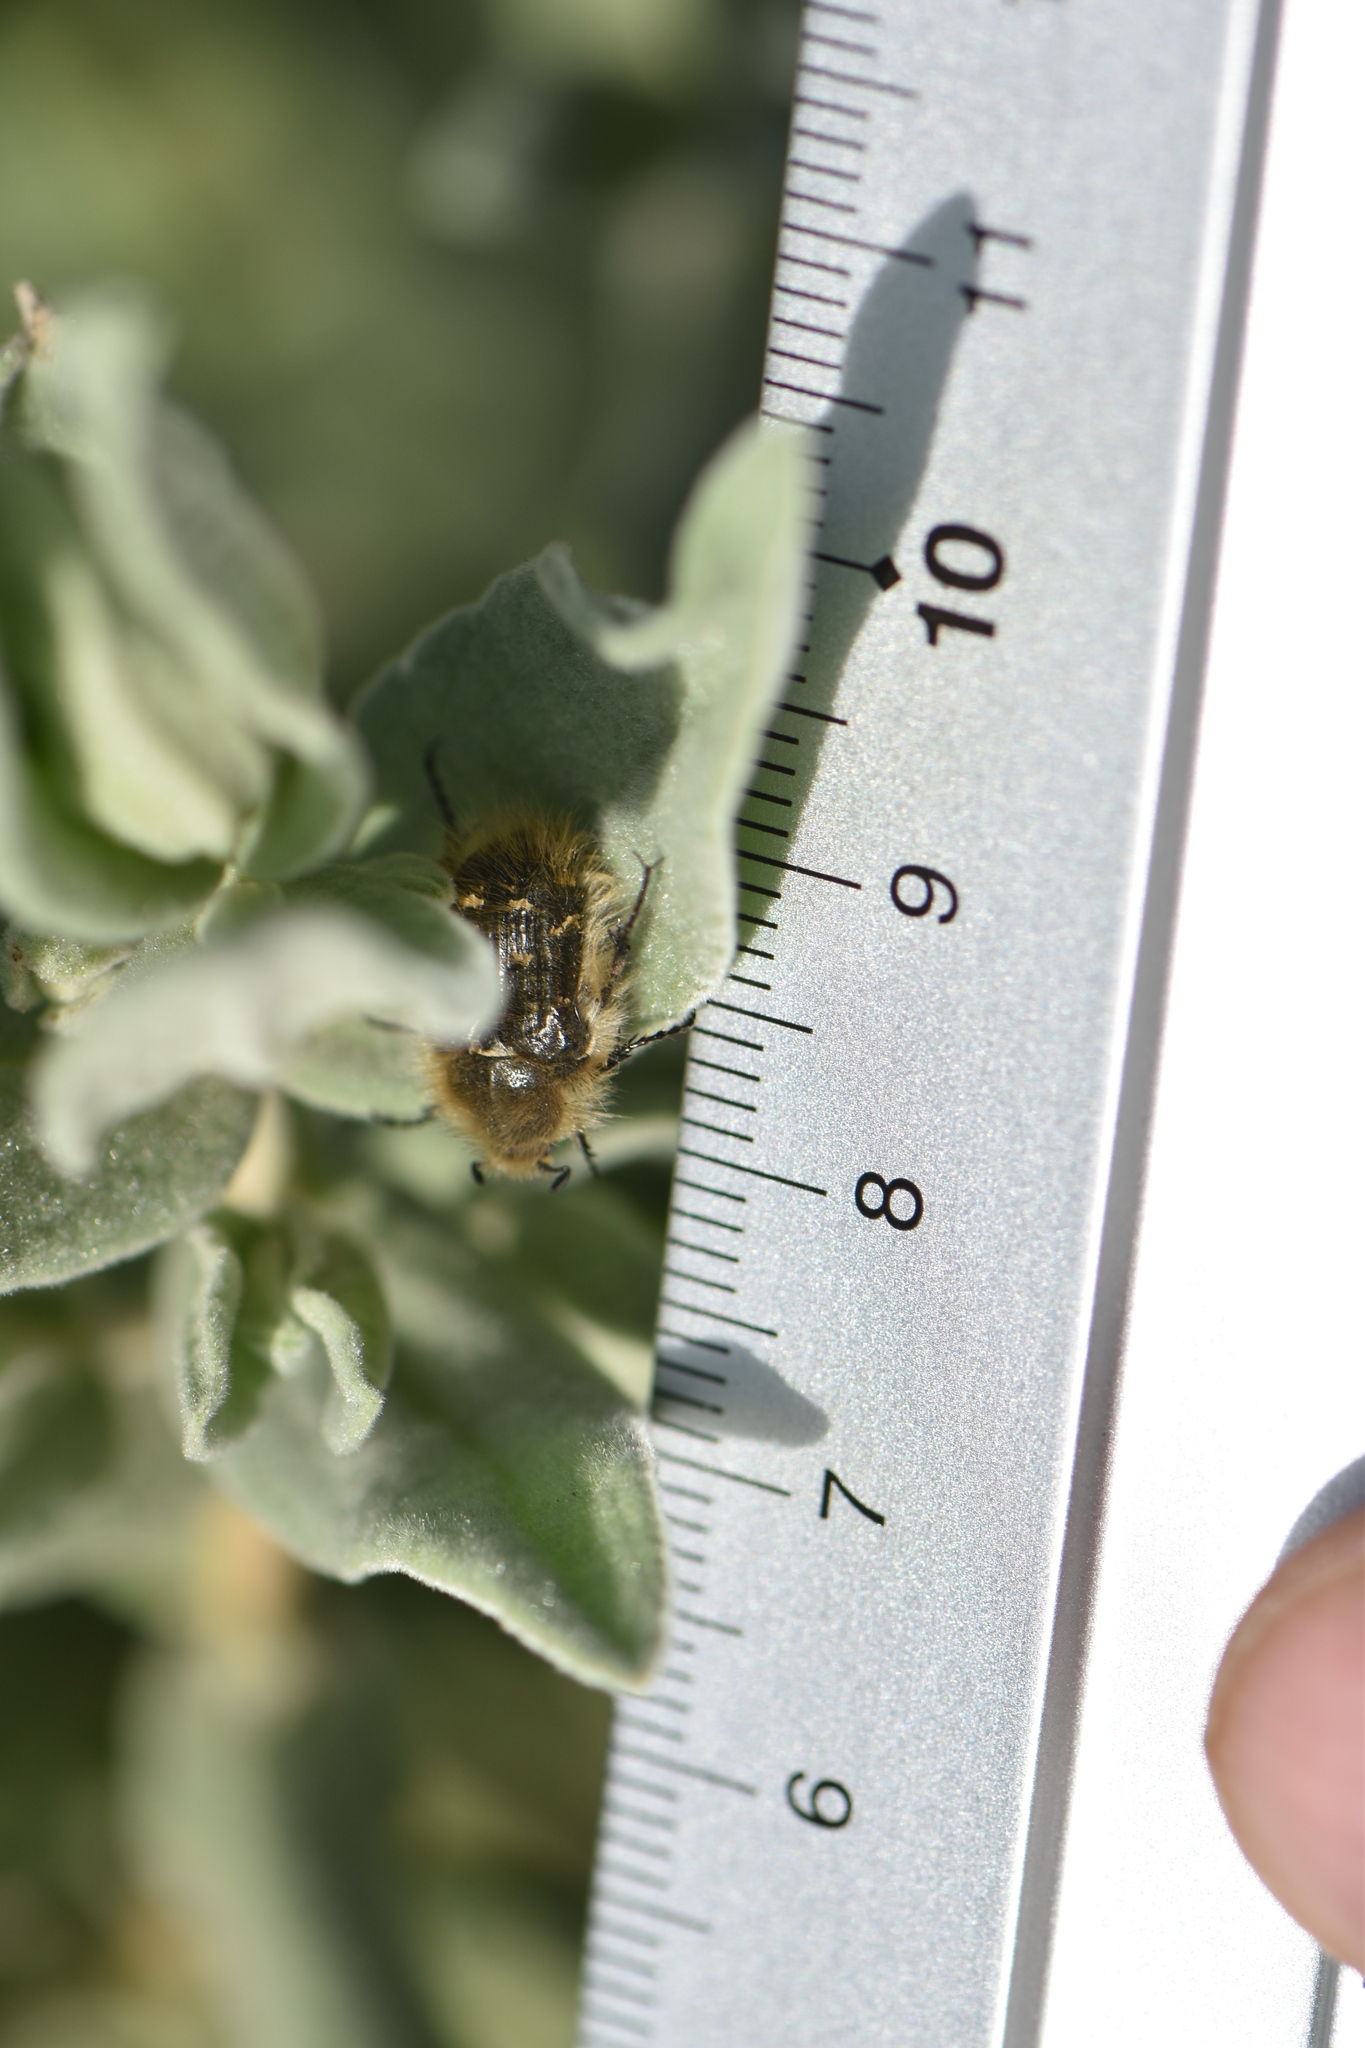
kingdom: Animalia
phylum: Arthropoda
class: Insecta
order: Coleoptera
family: Scarabaeidae
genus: Tropinota
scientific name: Tropinota squalida
